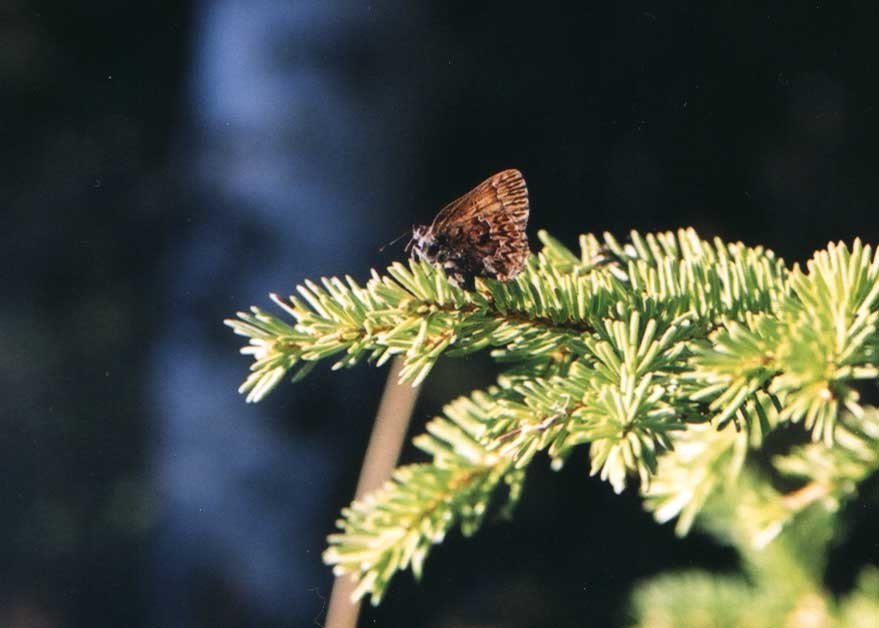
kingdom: Animalia
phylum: Arthropoda
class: Insecta
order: Lepidoptera
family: Lycaenidae
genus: Incisalia
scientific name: Incisalia eryphon
